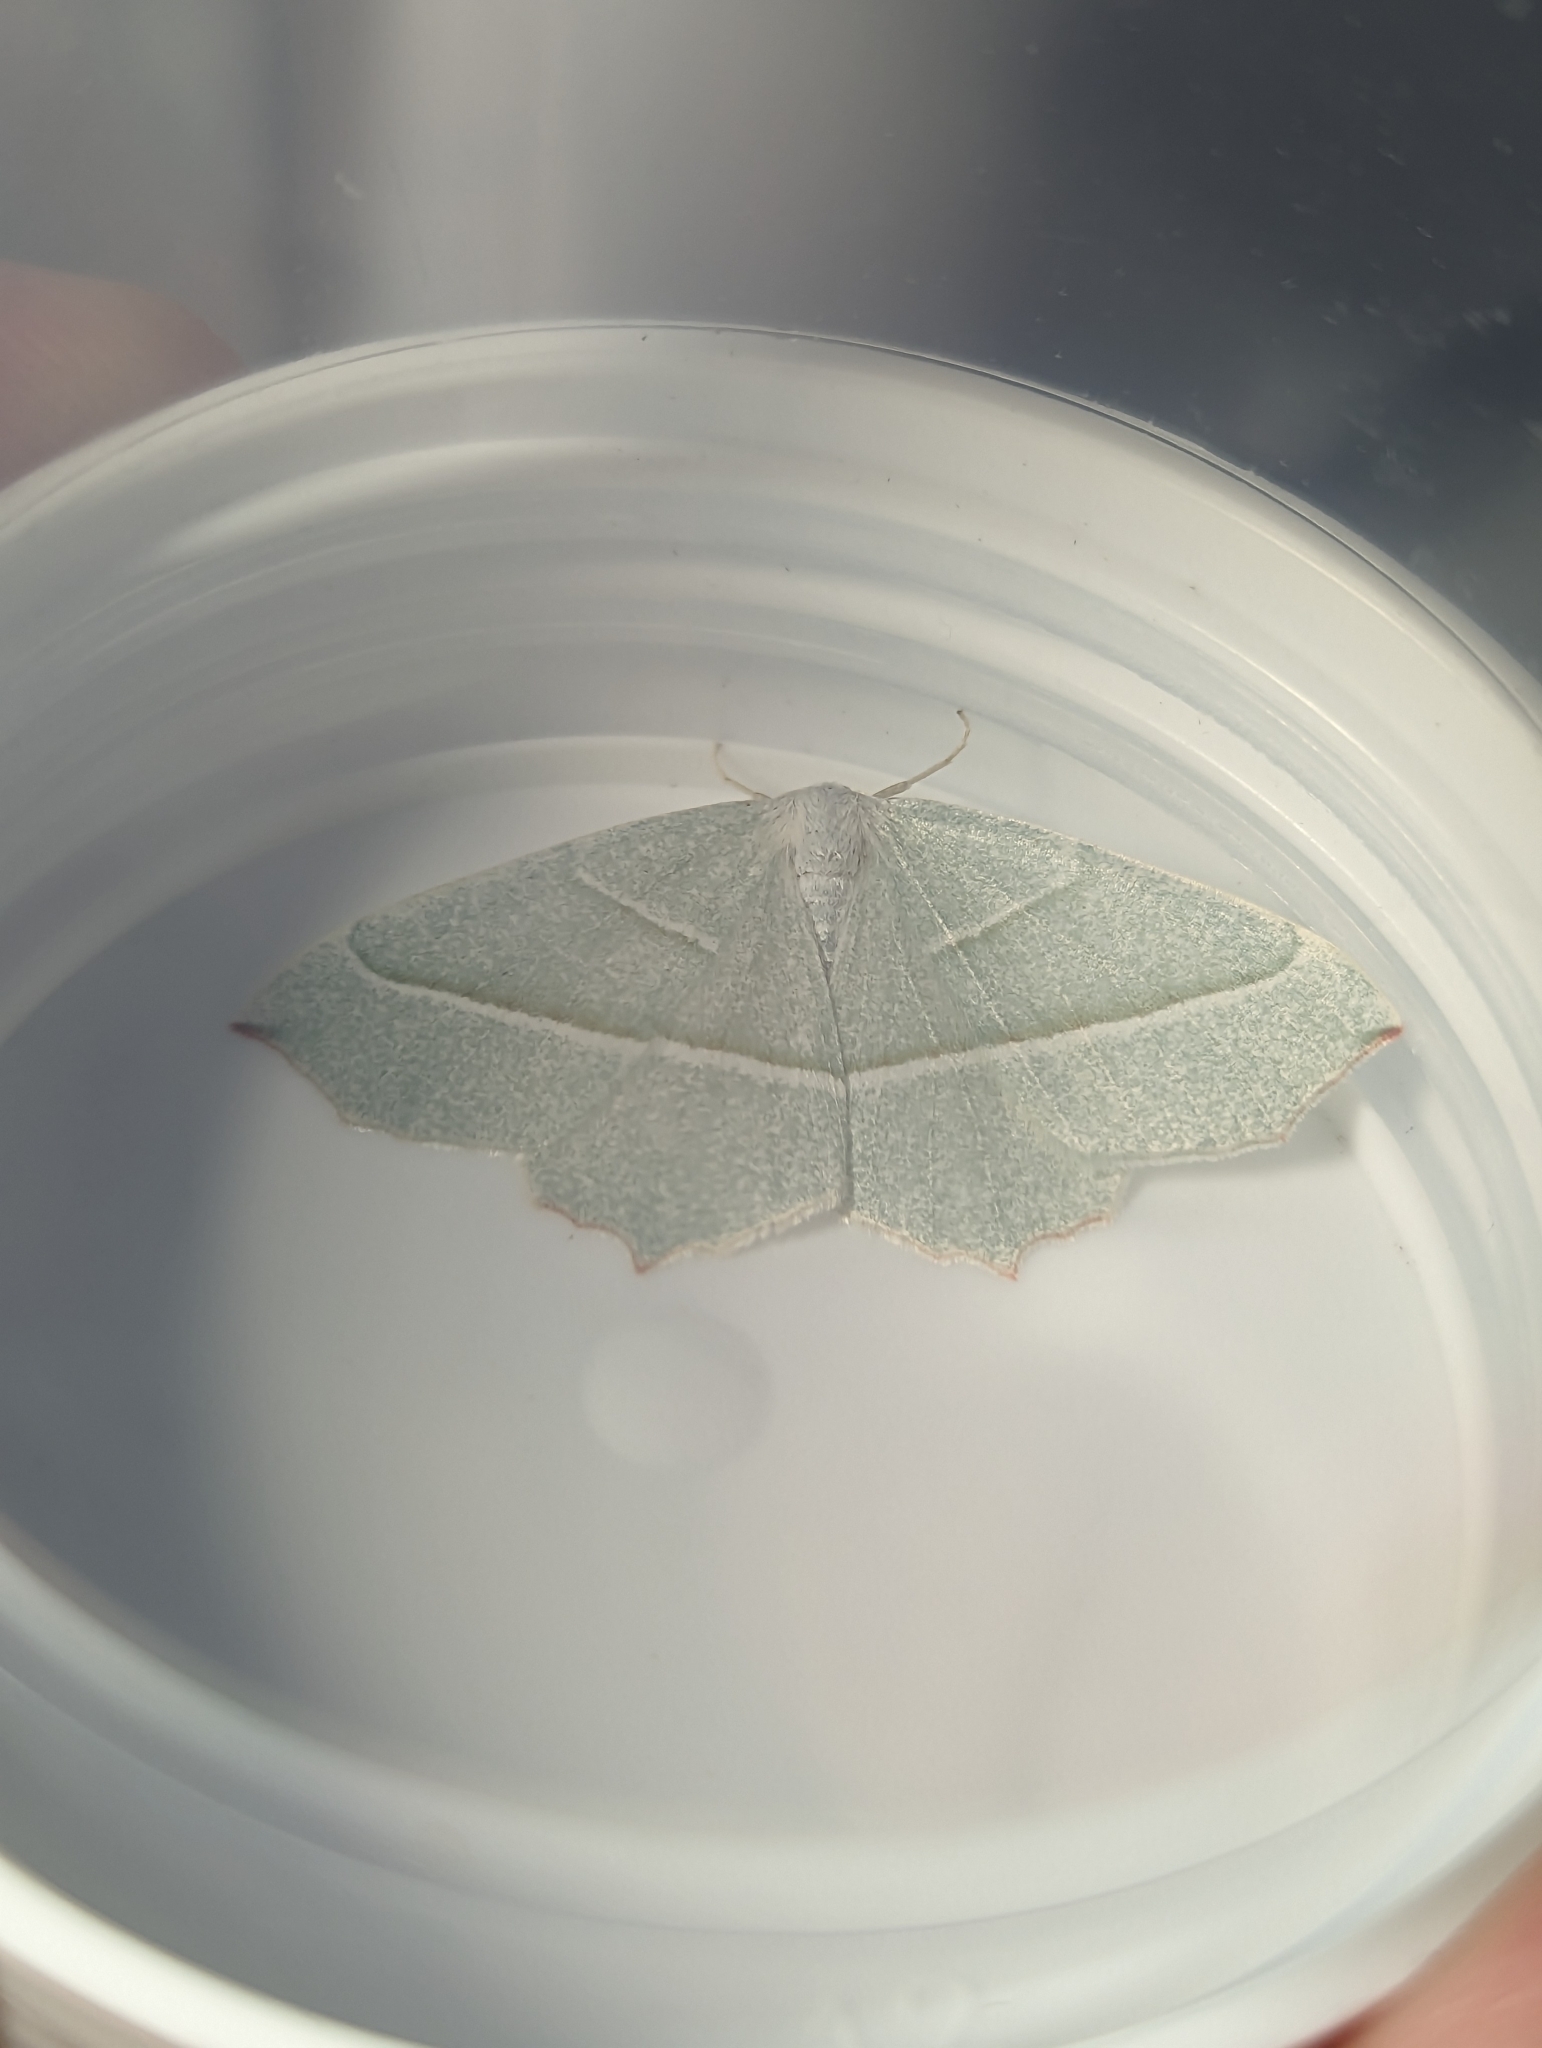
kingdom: Animalia
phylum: Arthropoda
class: Insecta
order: Lepidoptera
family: Geometridae
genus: Campaea
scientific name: Campaea margaritaria
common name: Light emerald
